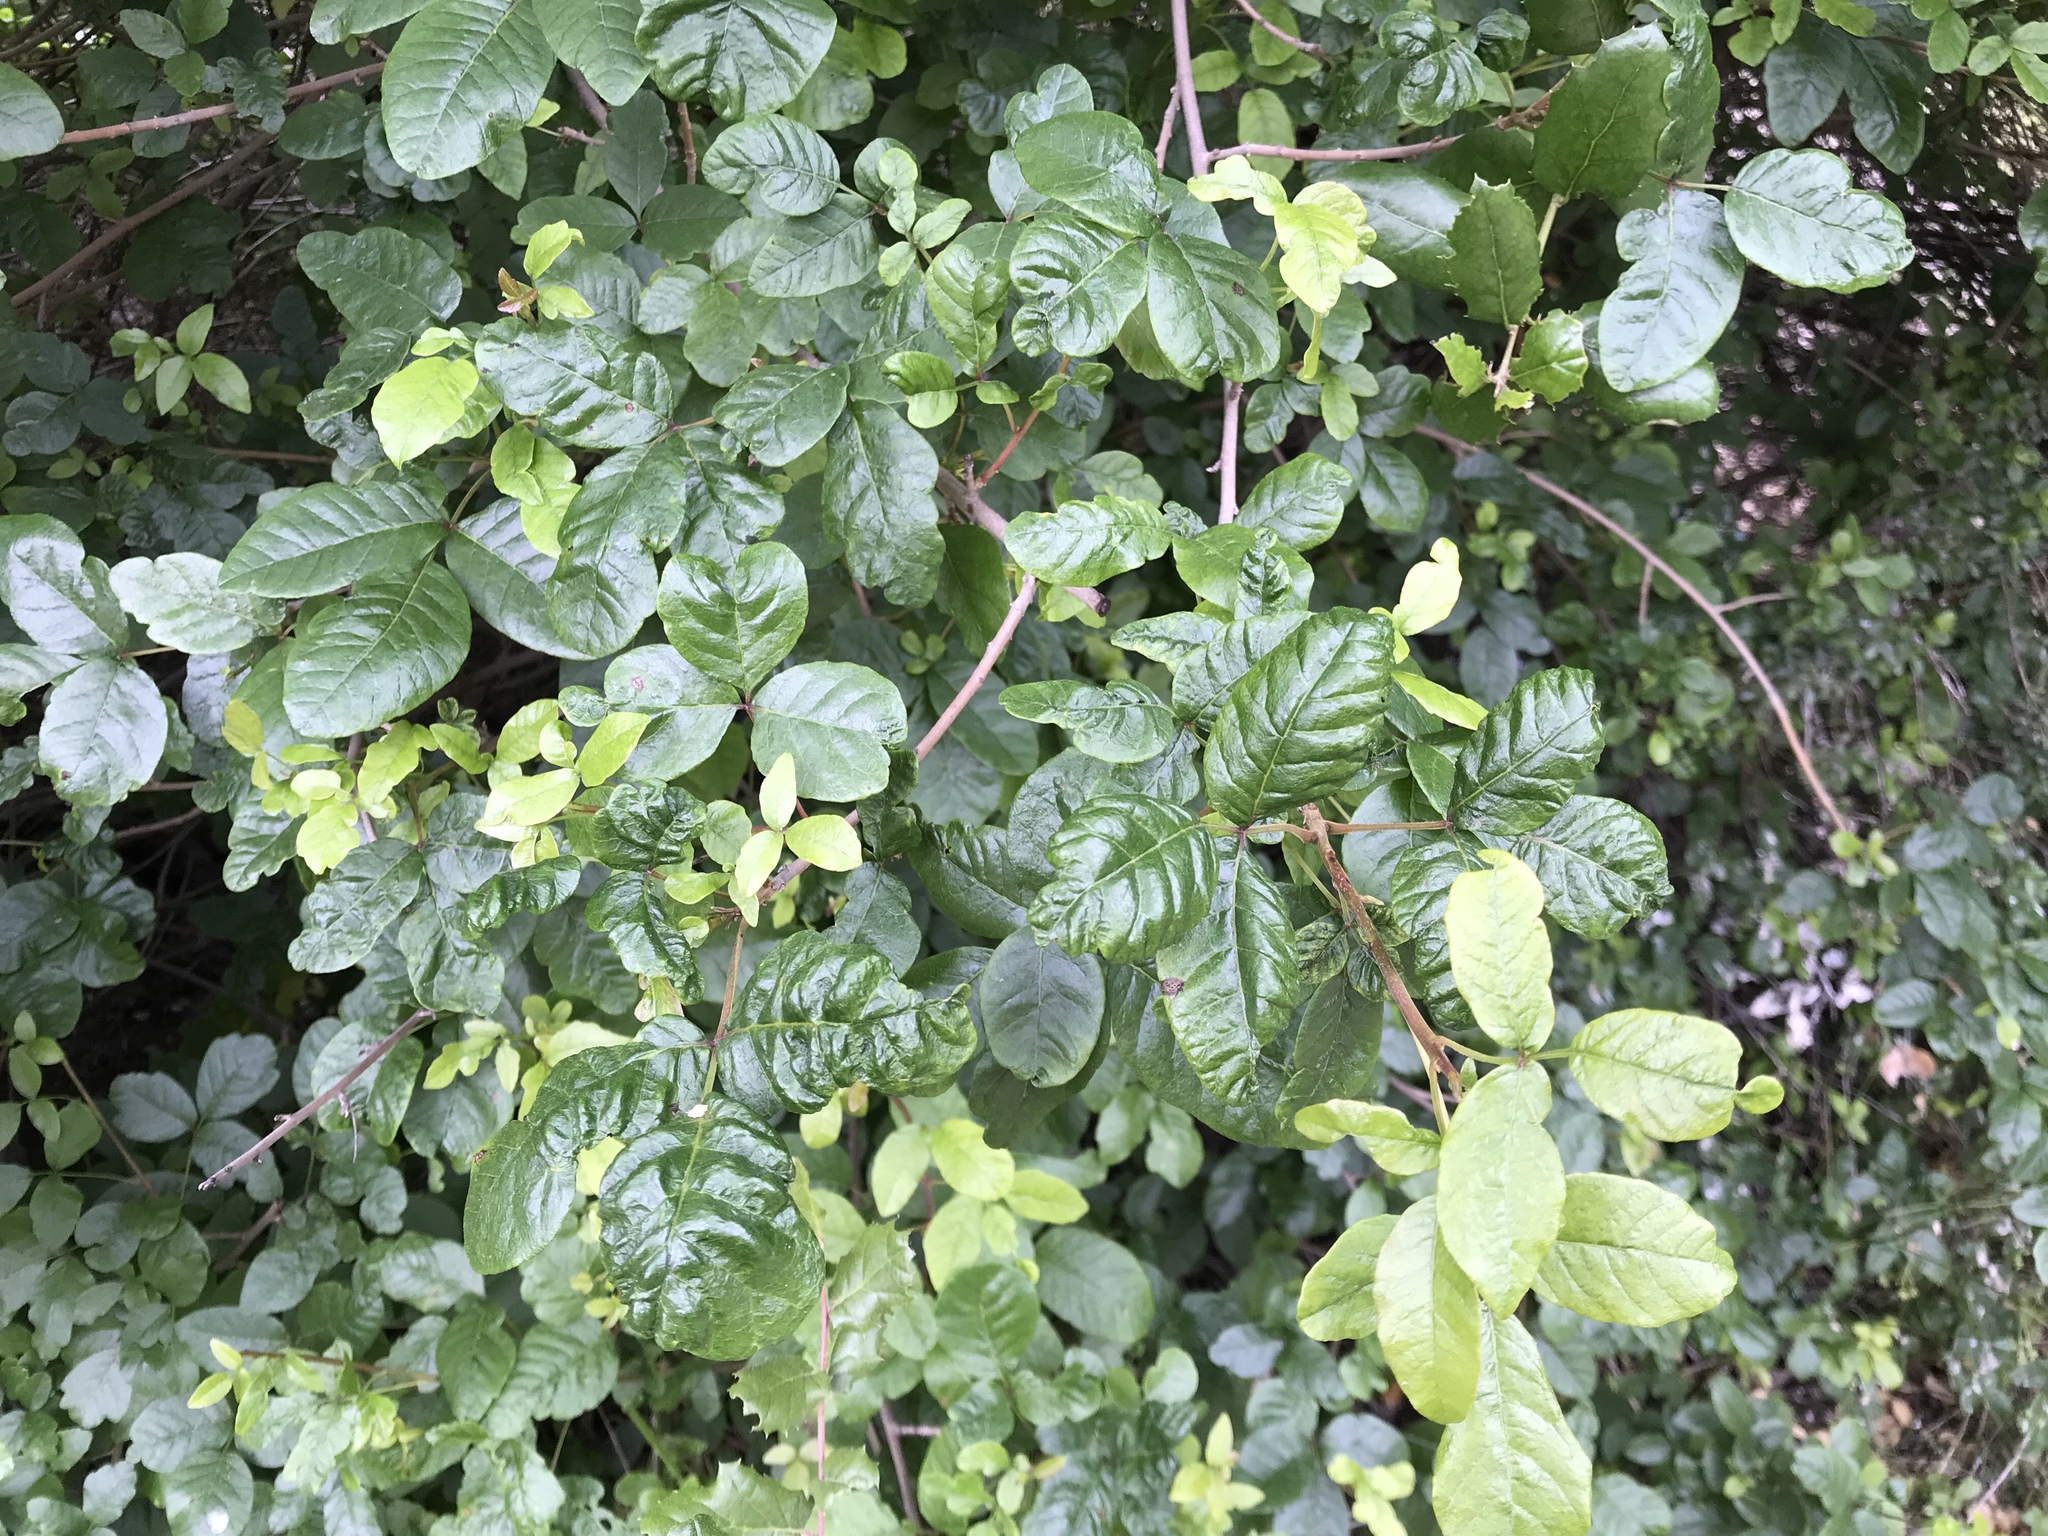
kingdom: Plantae
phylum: Tracheophyta
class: Magnoliopsida
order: Sapindales
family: Anacardiaceae
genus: Toxicodendron
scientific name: Toxicodendron diversilobum
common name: Pacific poison-oak
